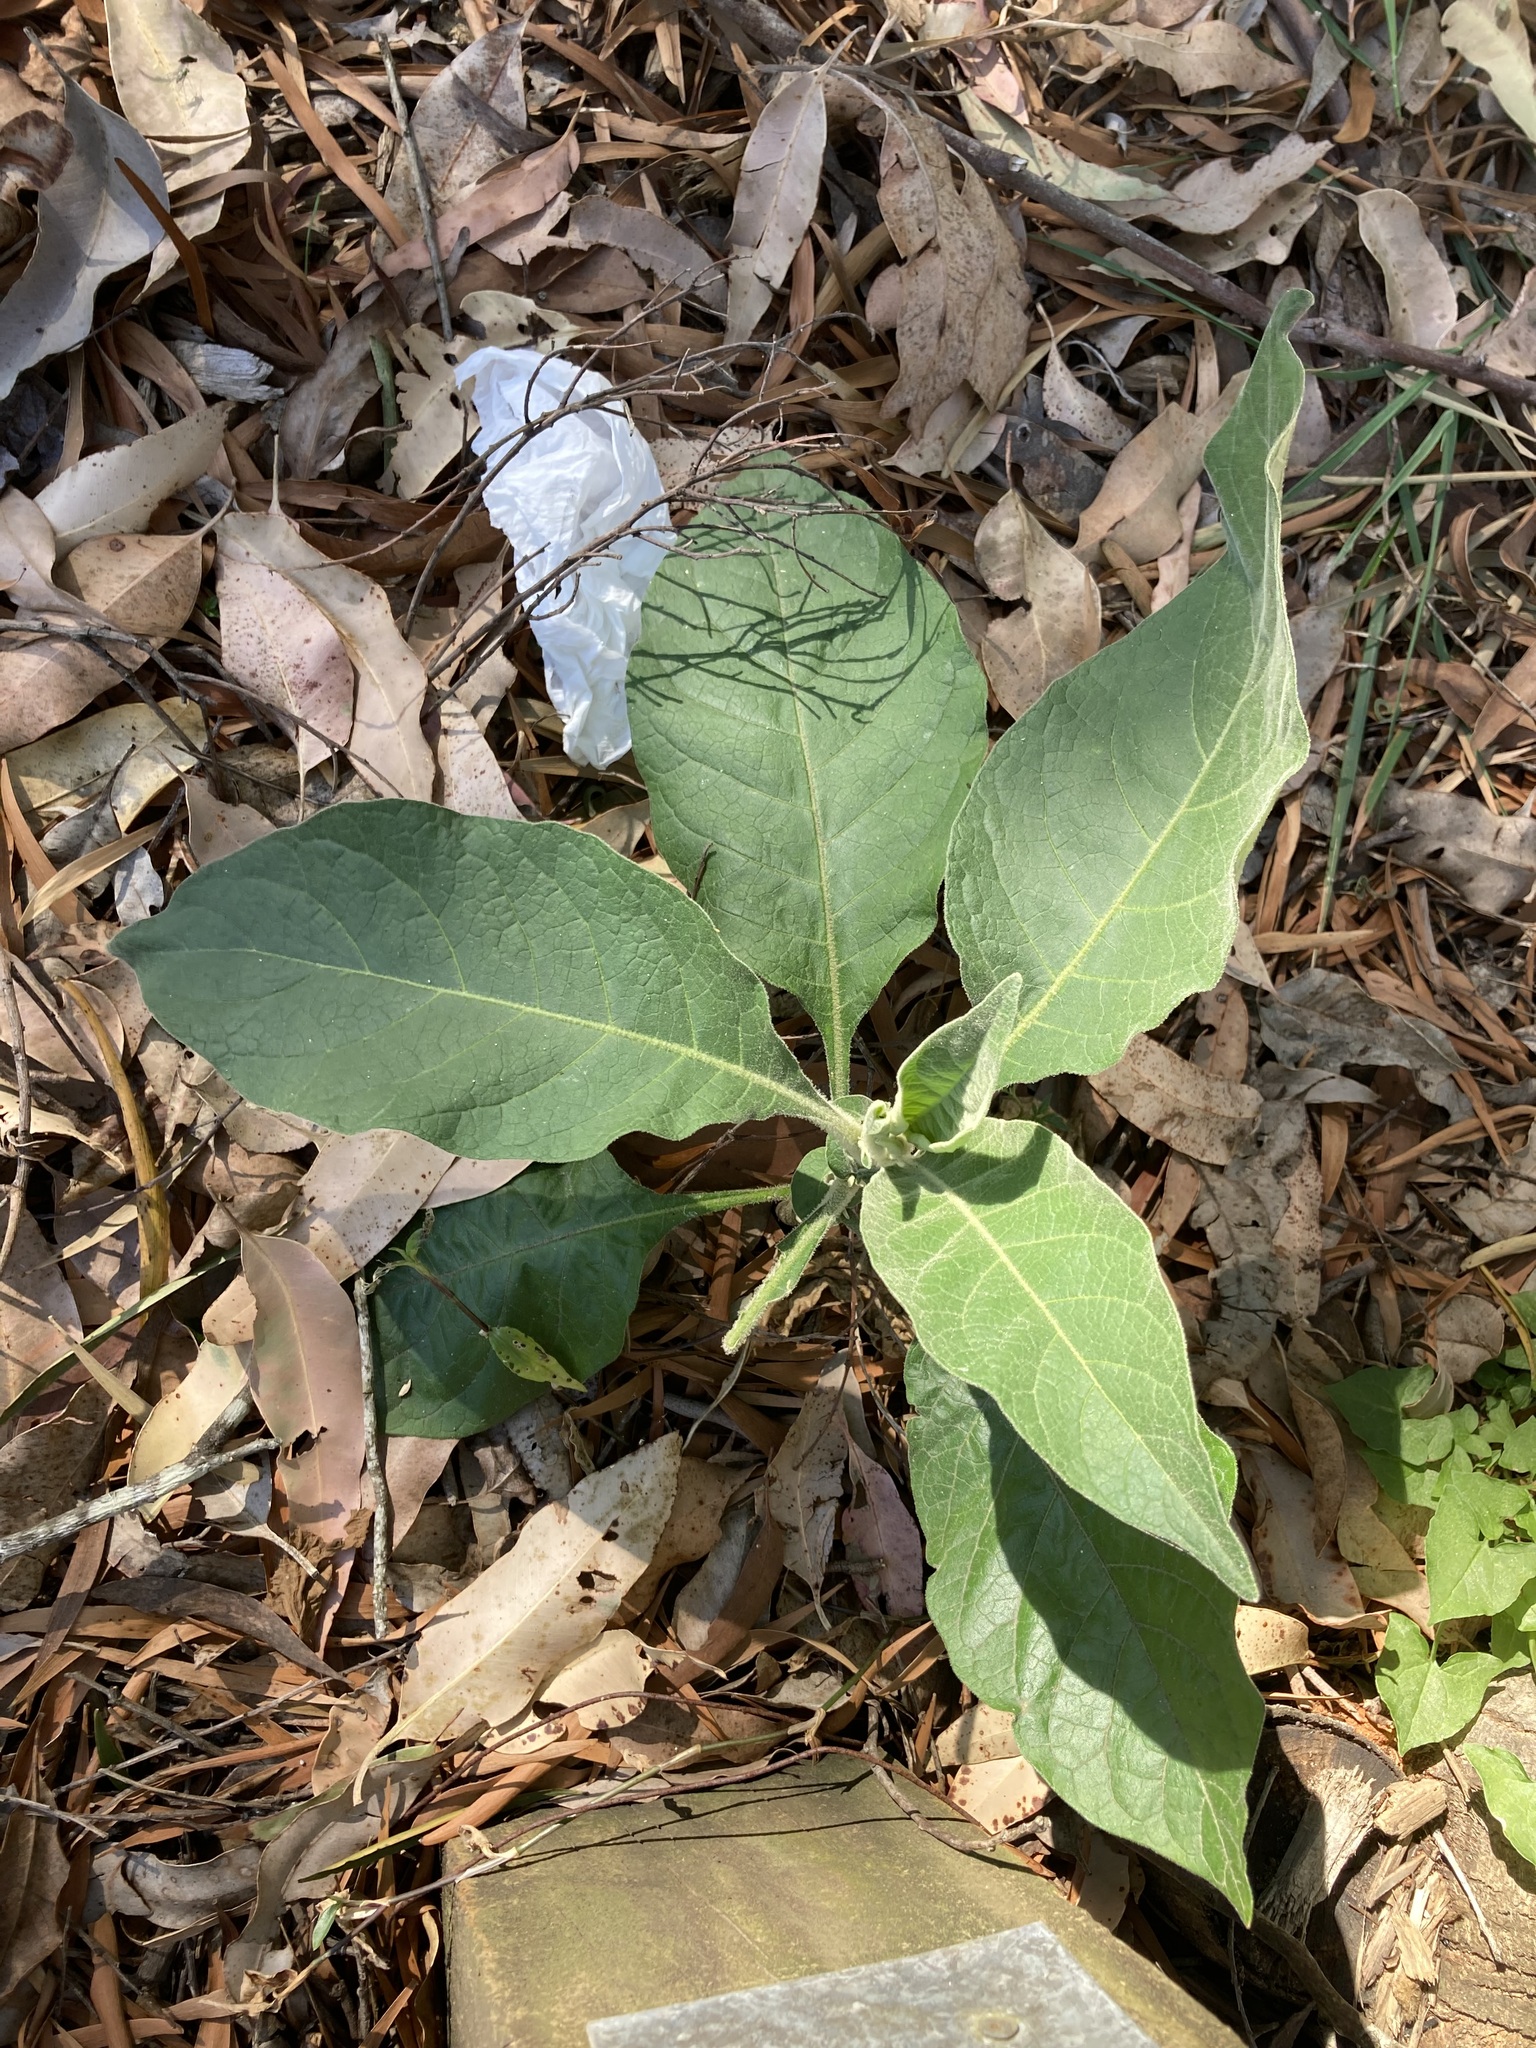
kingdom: Plantae
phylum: Tracheophyta
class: Magnoliopsida
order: Solanales
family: Solanaceae
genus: Solanum
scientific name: Solanum mauritianum
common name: Earleaf nightshade
